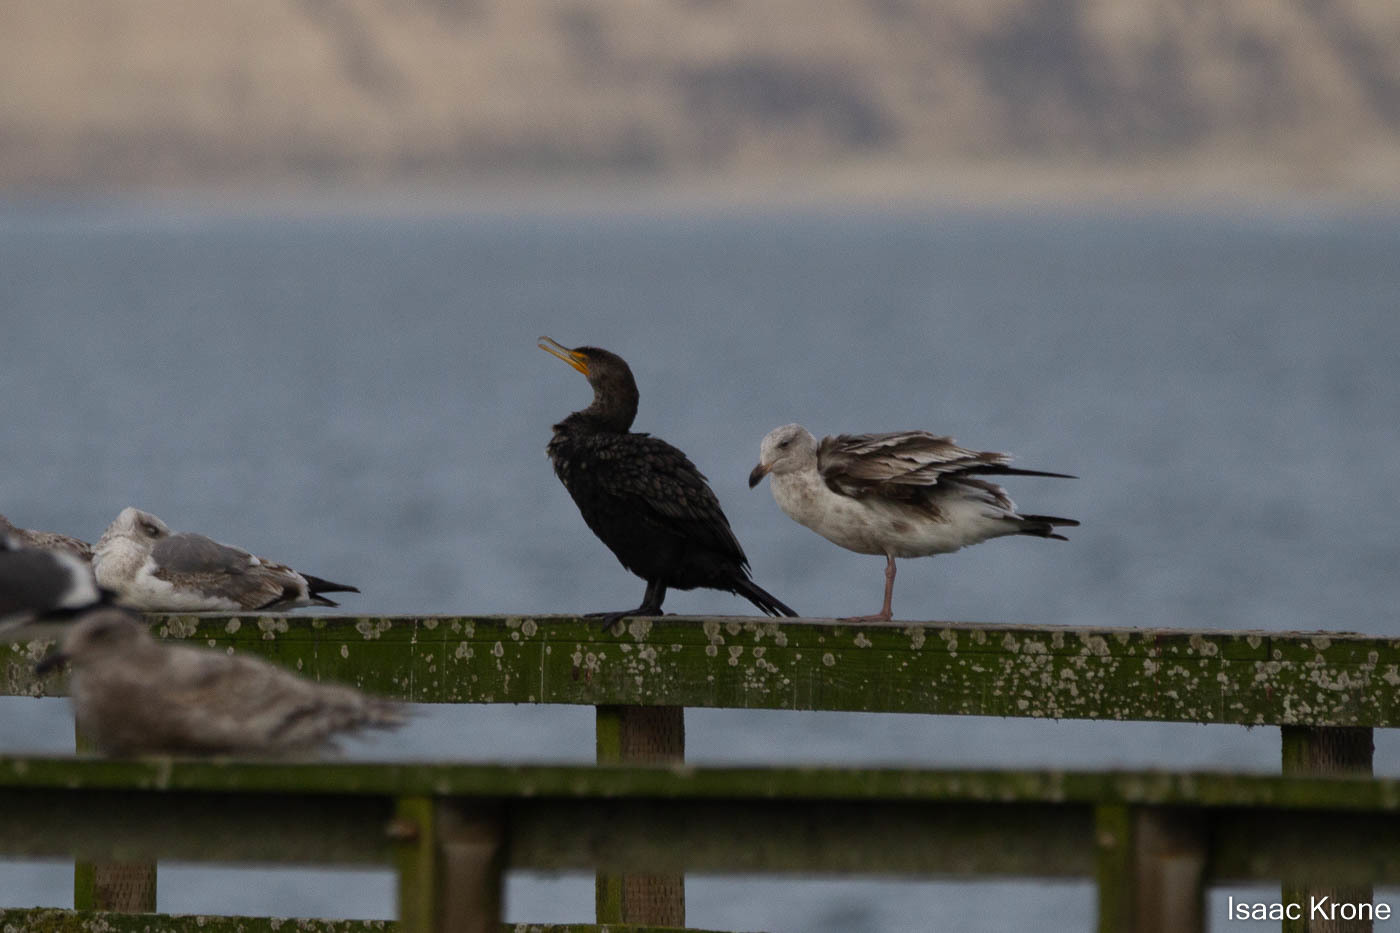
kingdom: Animalia
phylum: Chordata
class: Aves
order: Suliformes
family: Phalacrocoracidae
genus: Phalacrocorax
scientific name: Phalacrocorax auritus
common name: Double-crested cormorant
